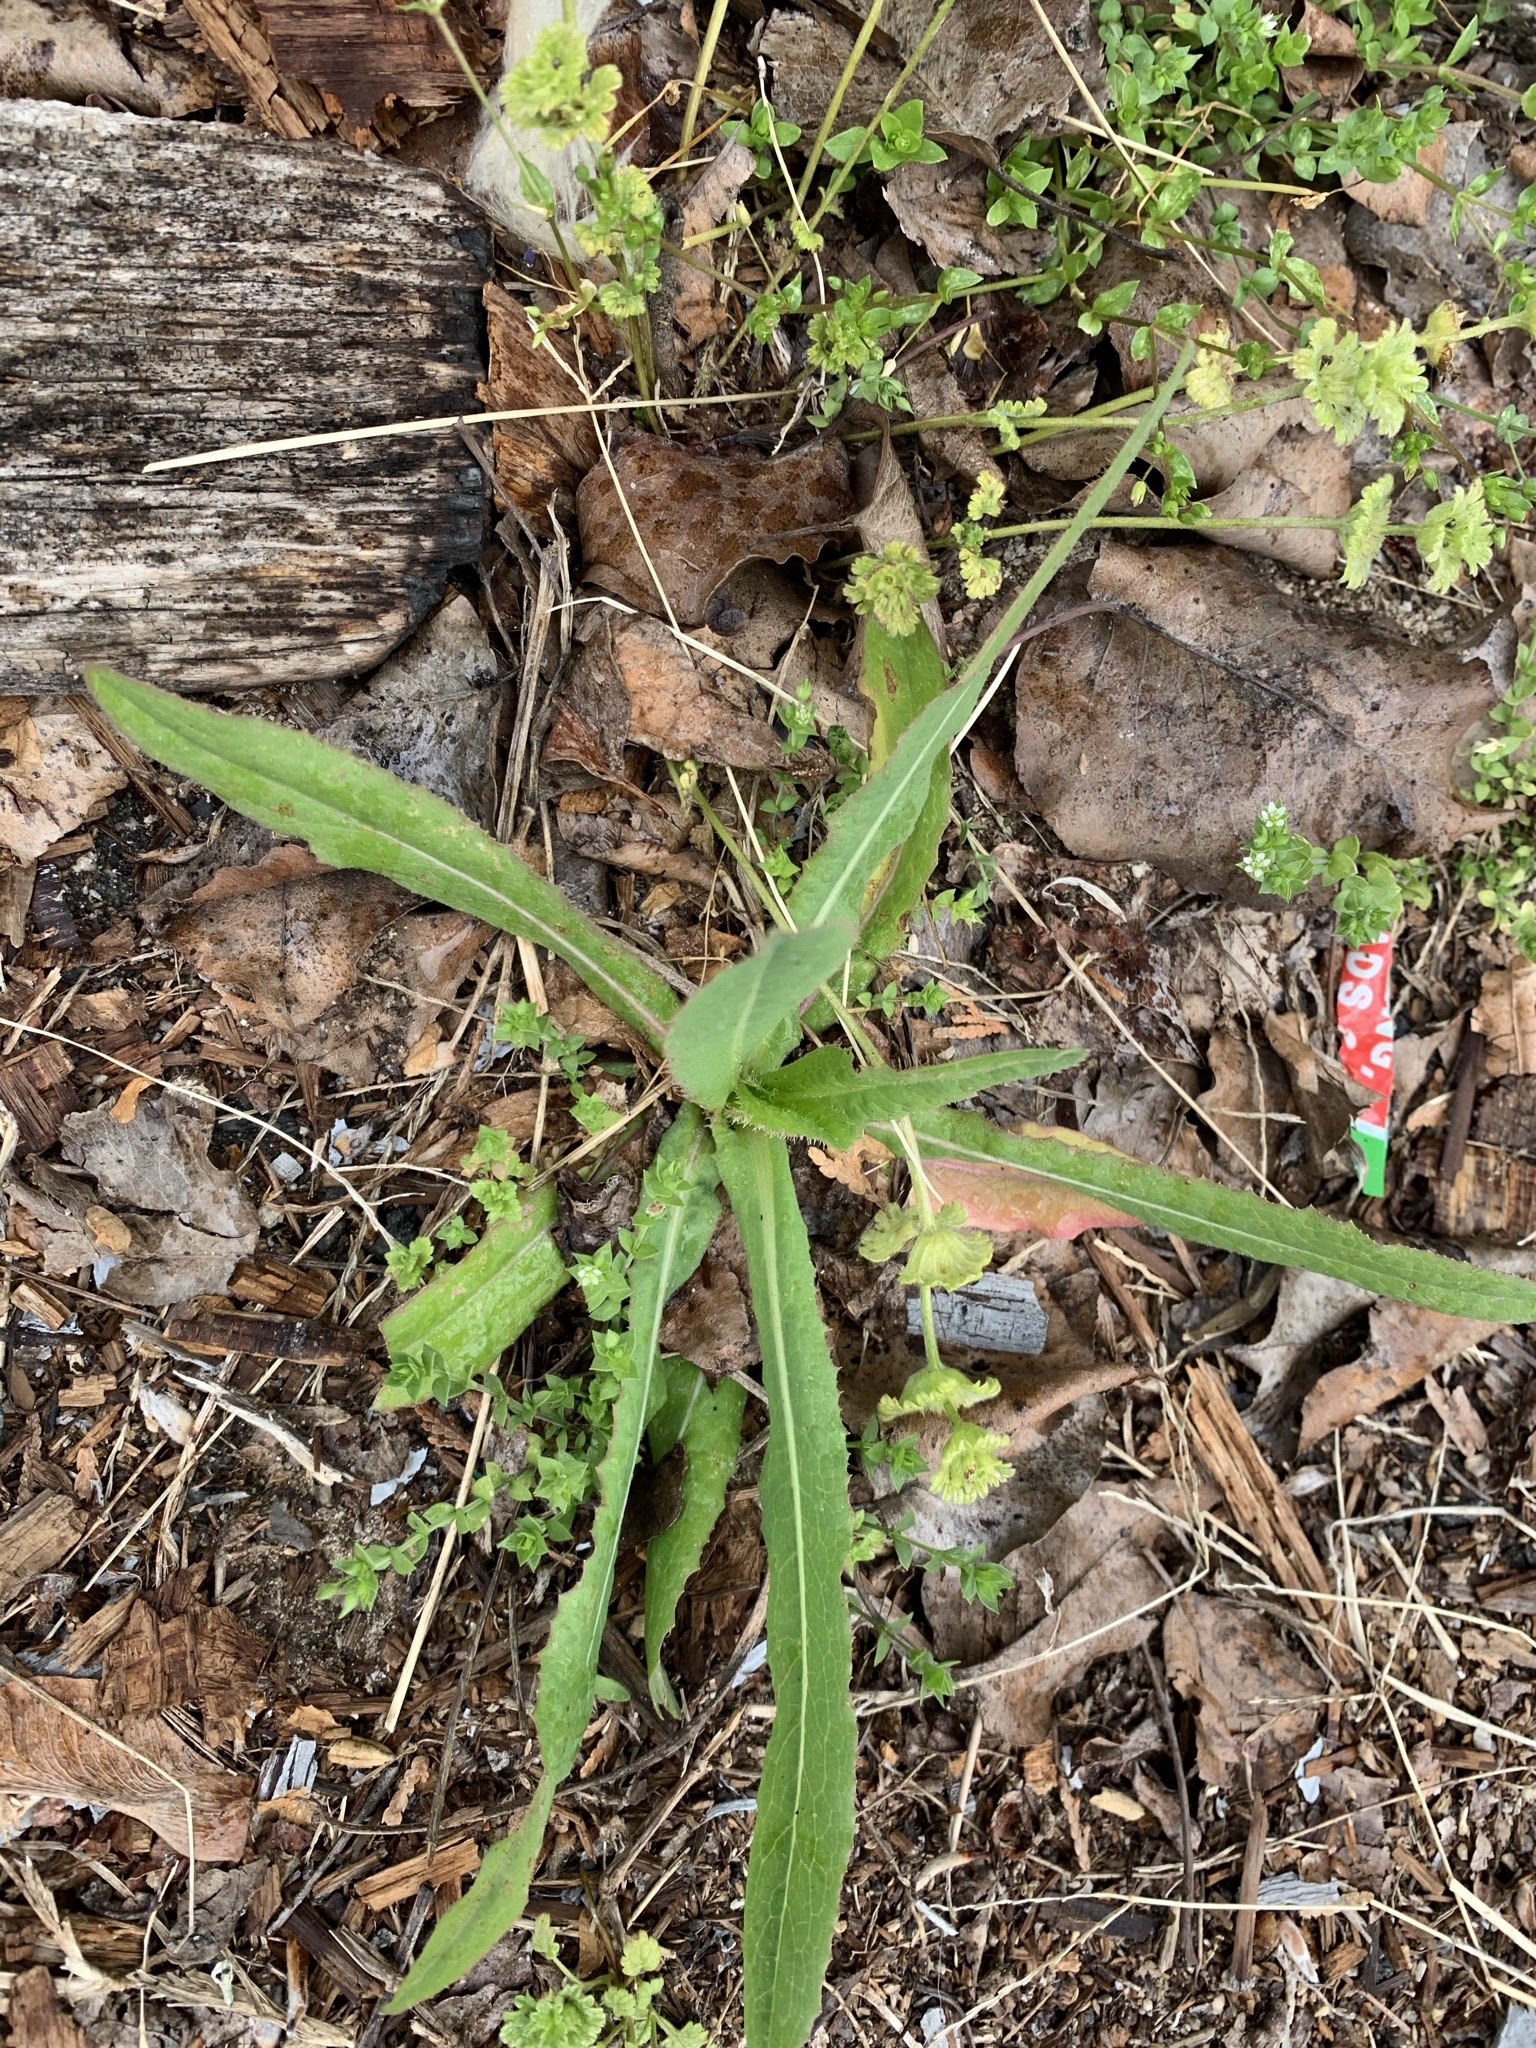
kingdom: Plantae
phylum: Tracheophyta
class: Magnoliopsida
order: Asterales
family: Asteraceae
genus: Lactuca
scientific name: Lactuca serriola
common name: Prickly lettuce
